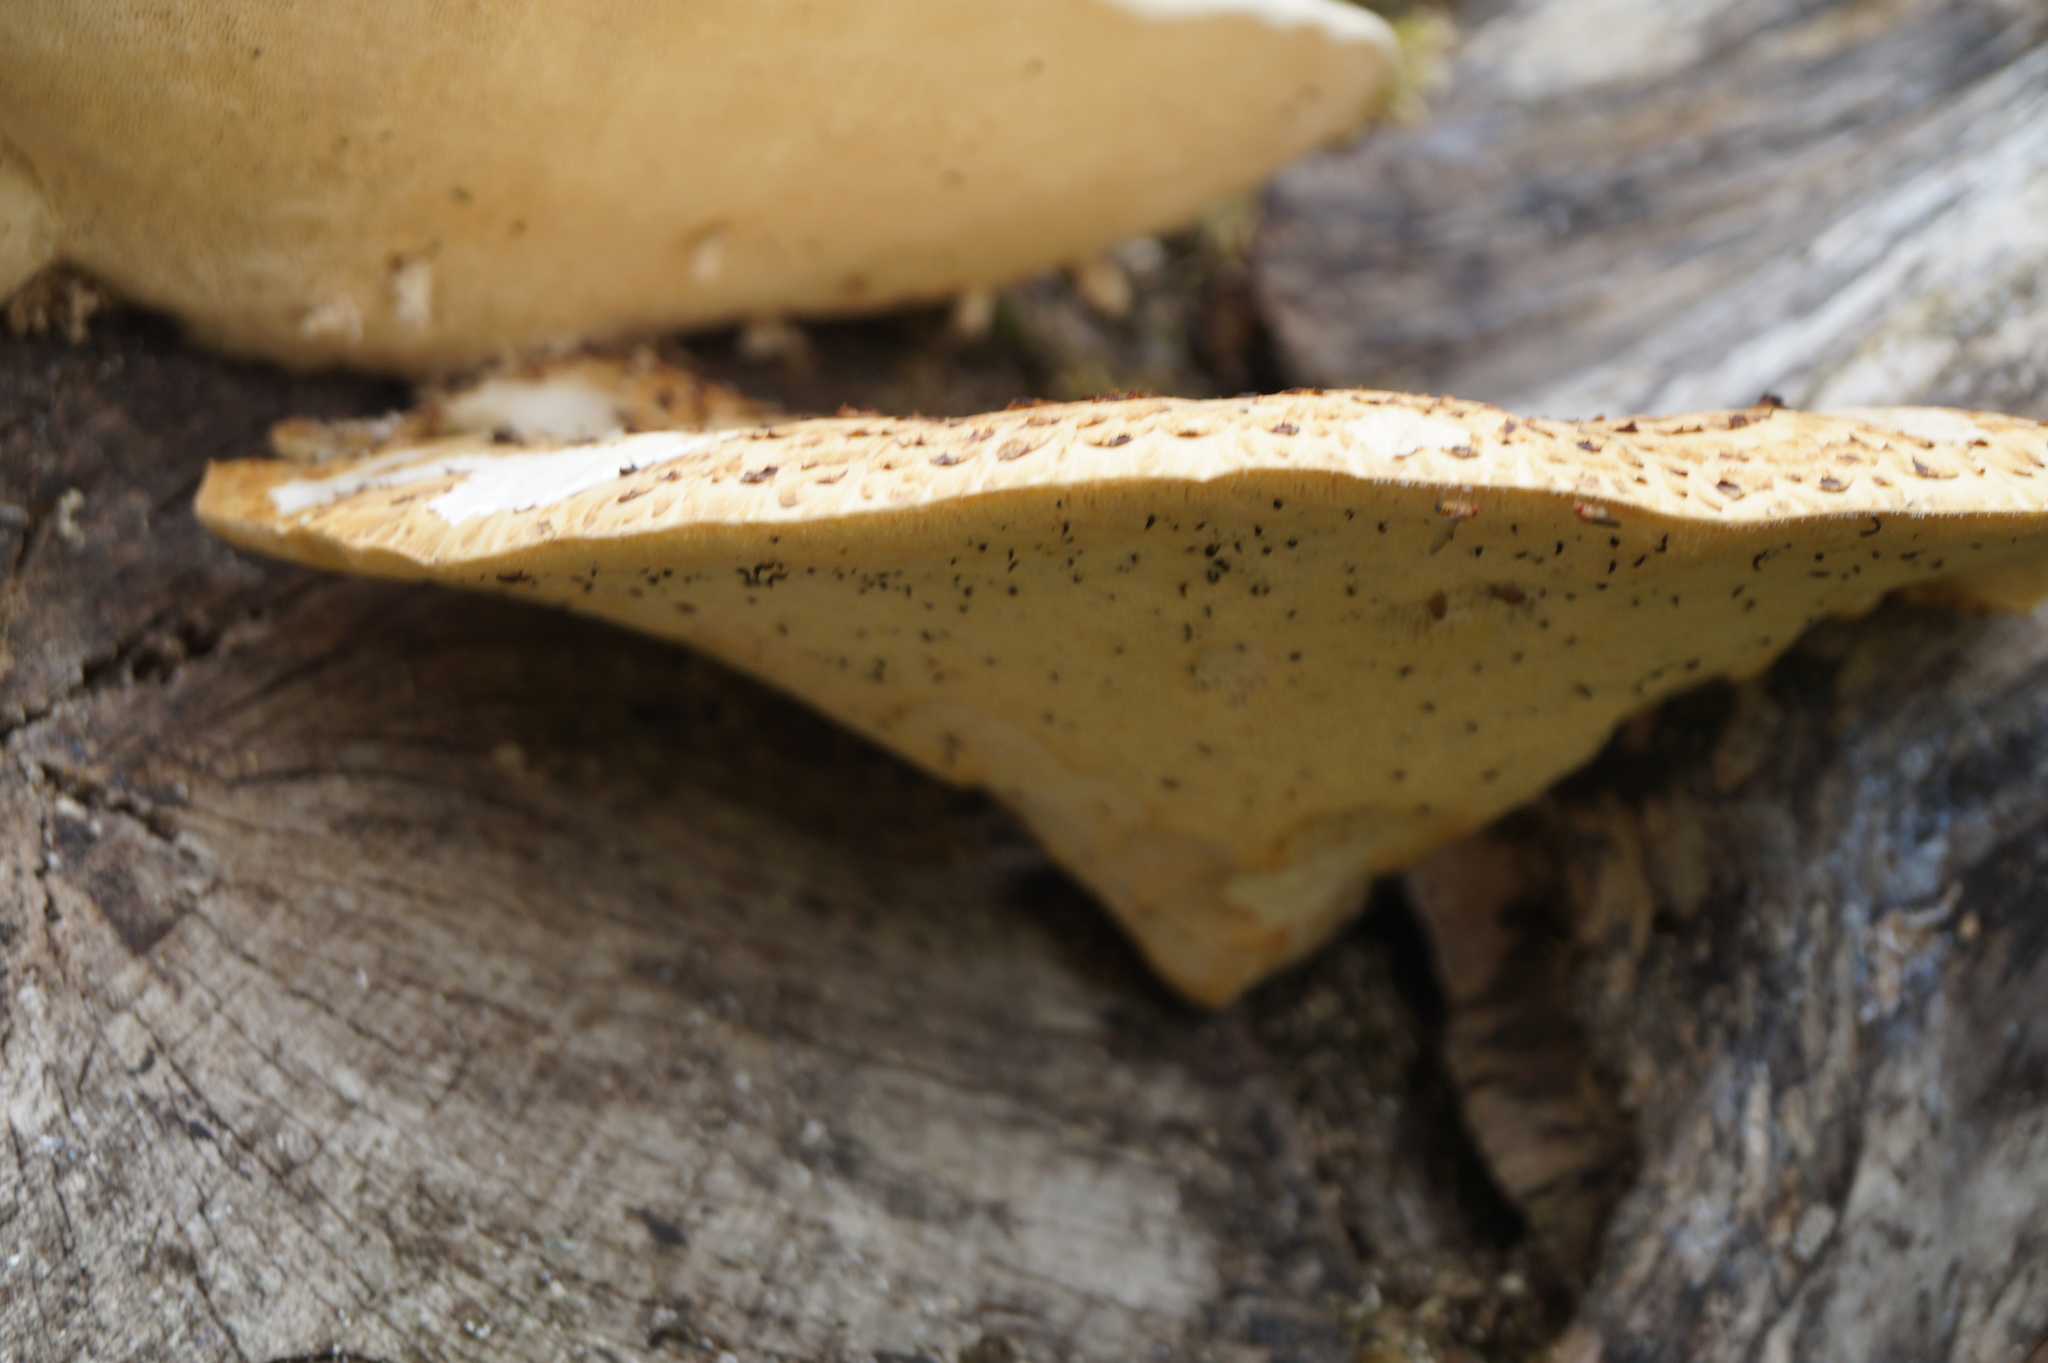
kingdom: Fungi
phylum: Basidiomycota
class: Agaricomycetes
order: Polyporales
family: Polyporaceae
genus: Cerioporus
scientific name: Cerioporus squamosus
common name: Dryad's saddle
